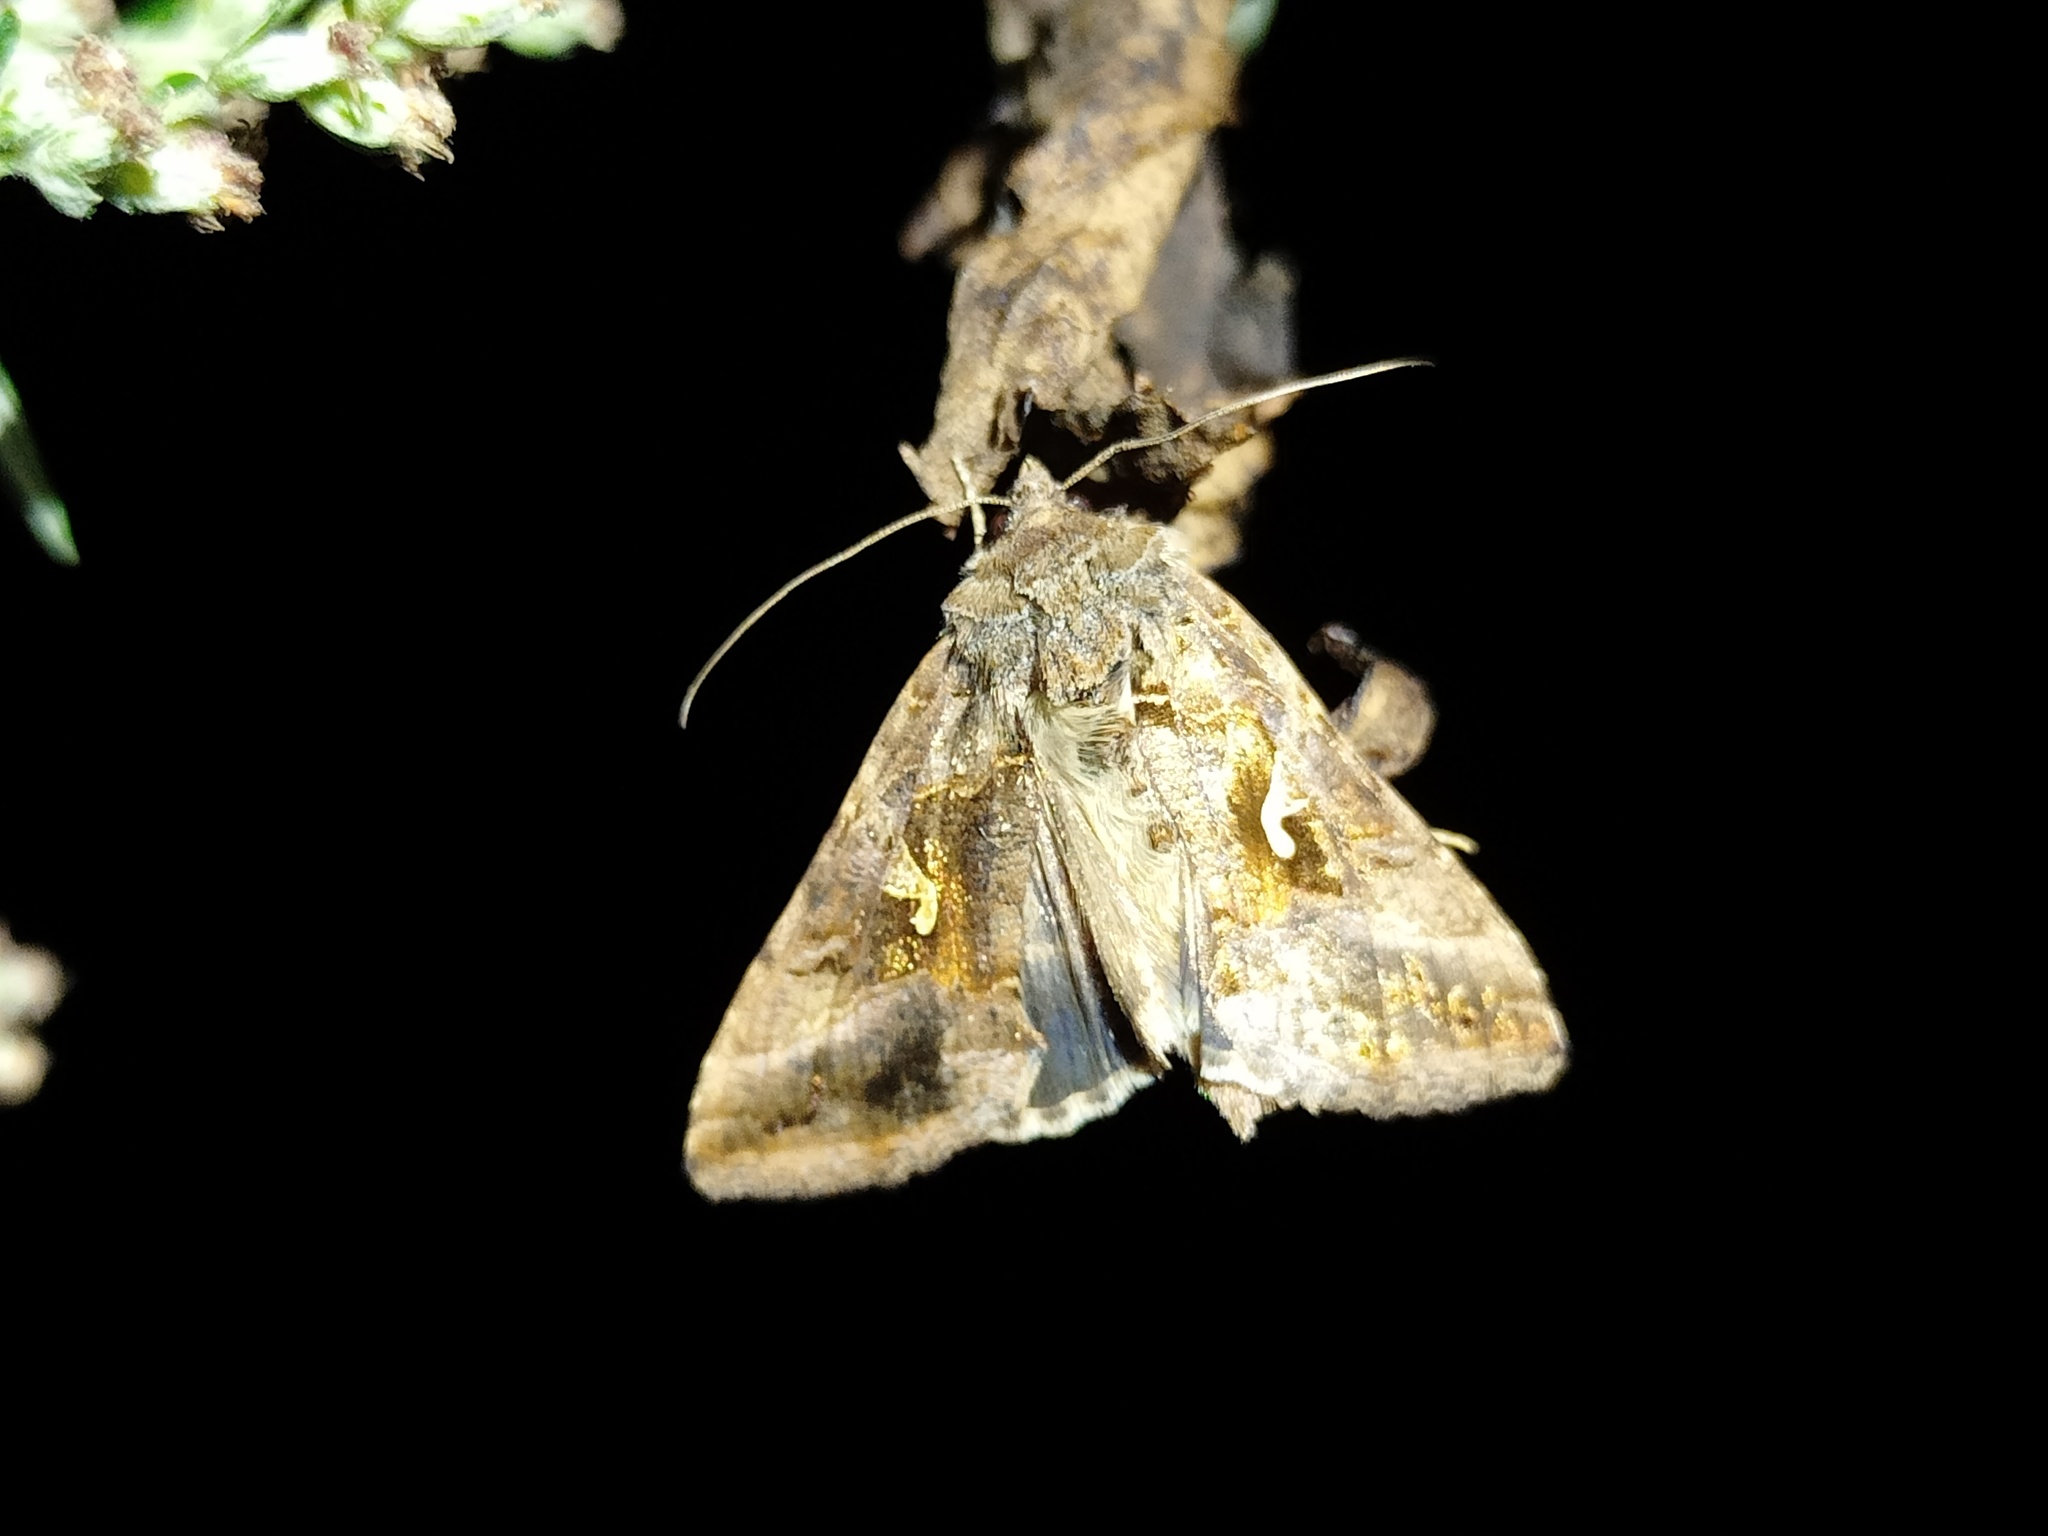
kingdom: Animalia
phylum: Arthropoda
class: Insecta
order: Lepidoptera
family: Noctuidae
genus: Autographa
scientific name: Autographa gamma
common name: Silver y
